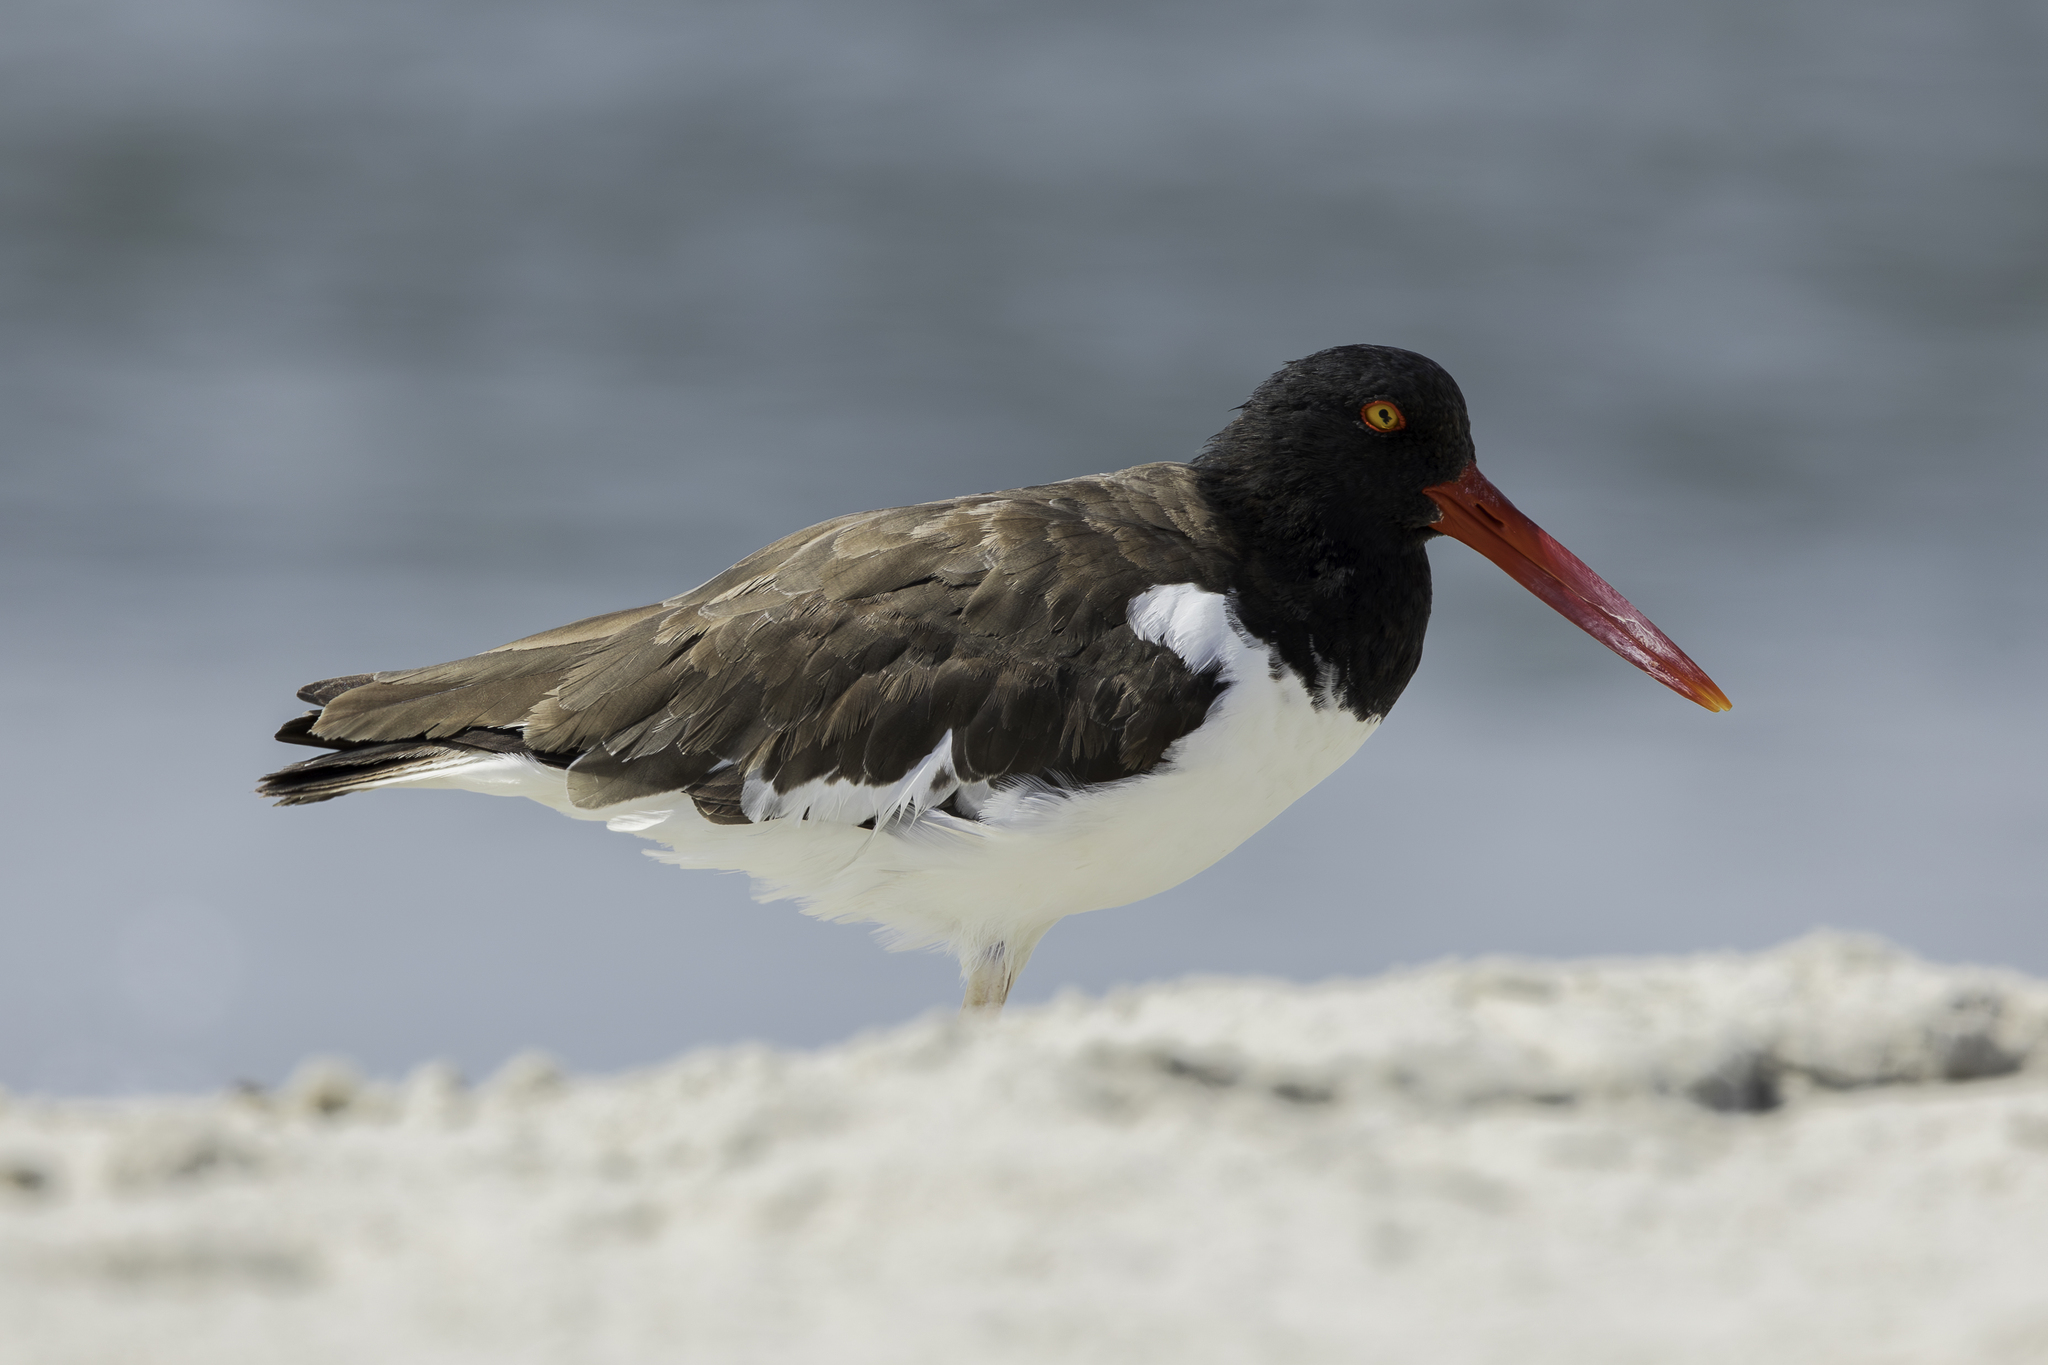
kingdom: Animalia
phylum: Chordata
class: Aves
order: Charadriiformes
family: Haematopodidae
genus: Haematopus
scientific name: Haematopus palliatus
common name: American oystercatcher
